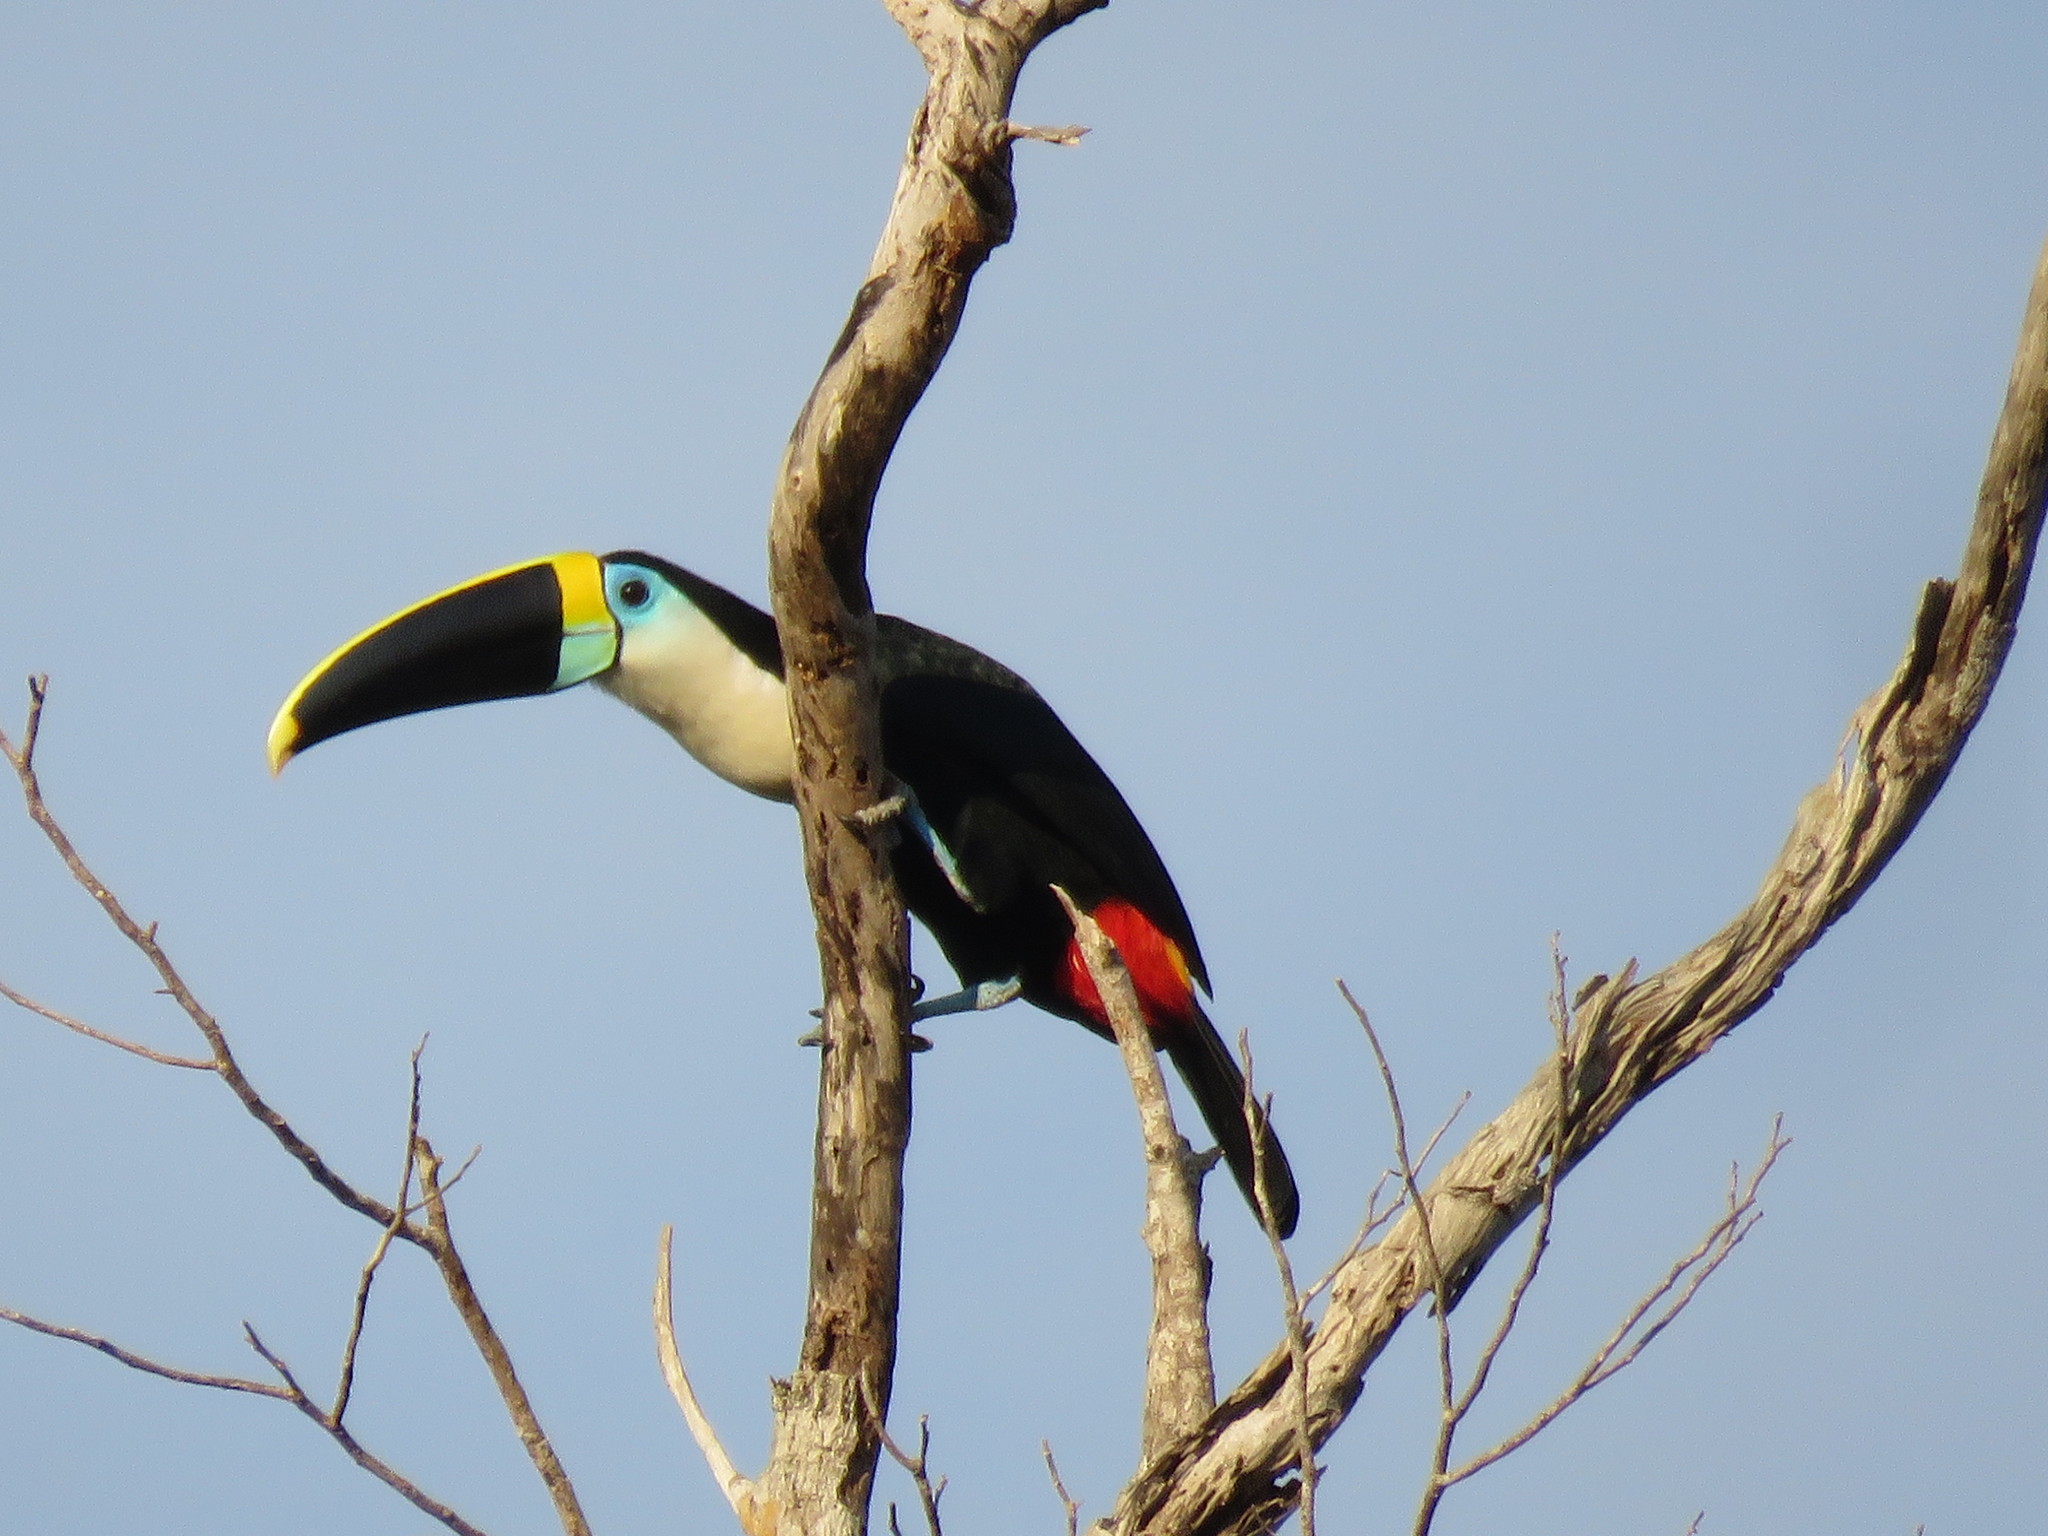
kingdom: Animalia
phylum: Chordata
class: Aves
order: Piciformes
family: Ramphastidae
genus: Ramphastos
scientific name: Ramphastos tucanus
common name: White-throated toucan
